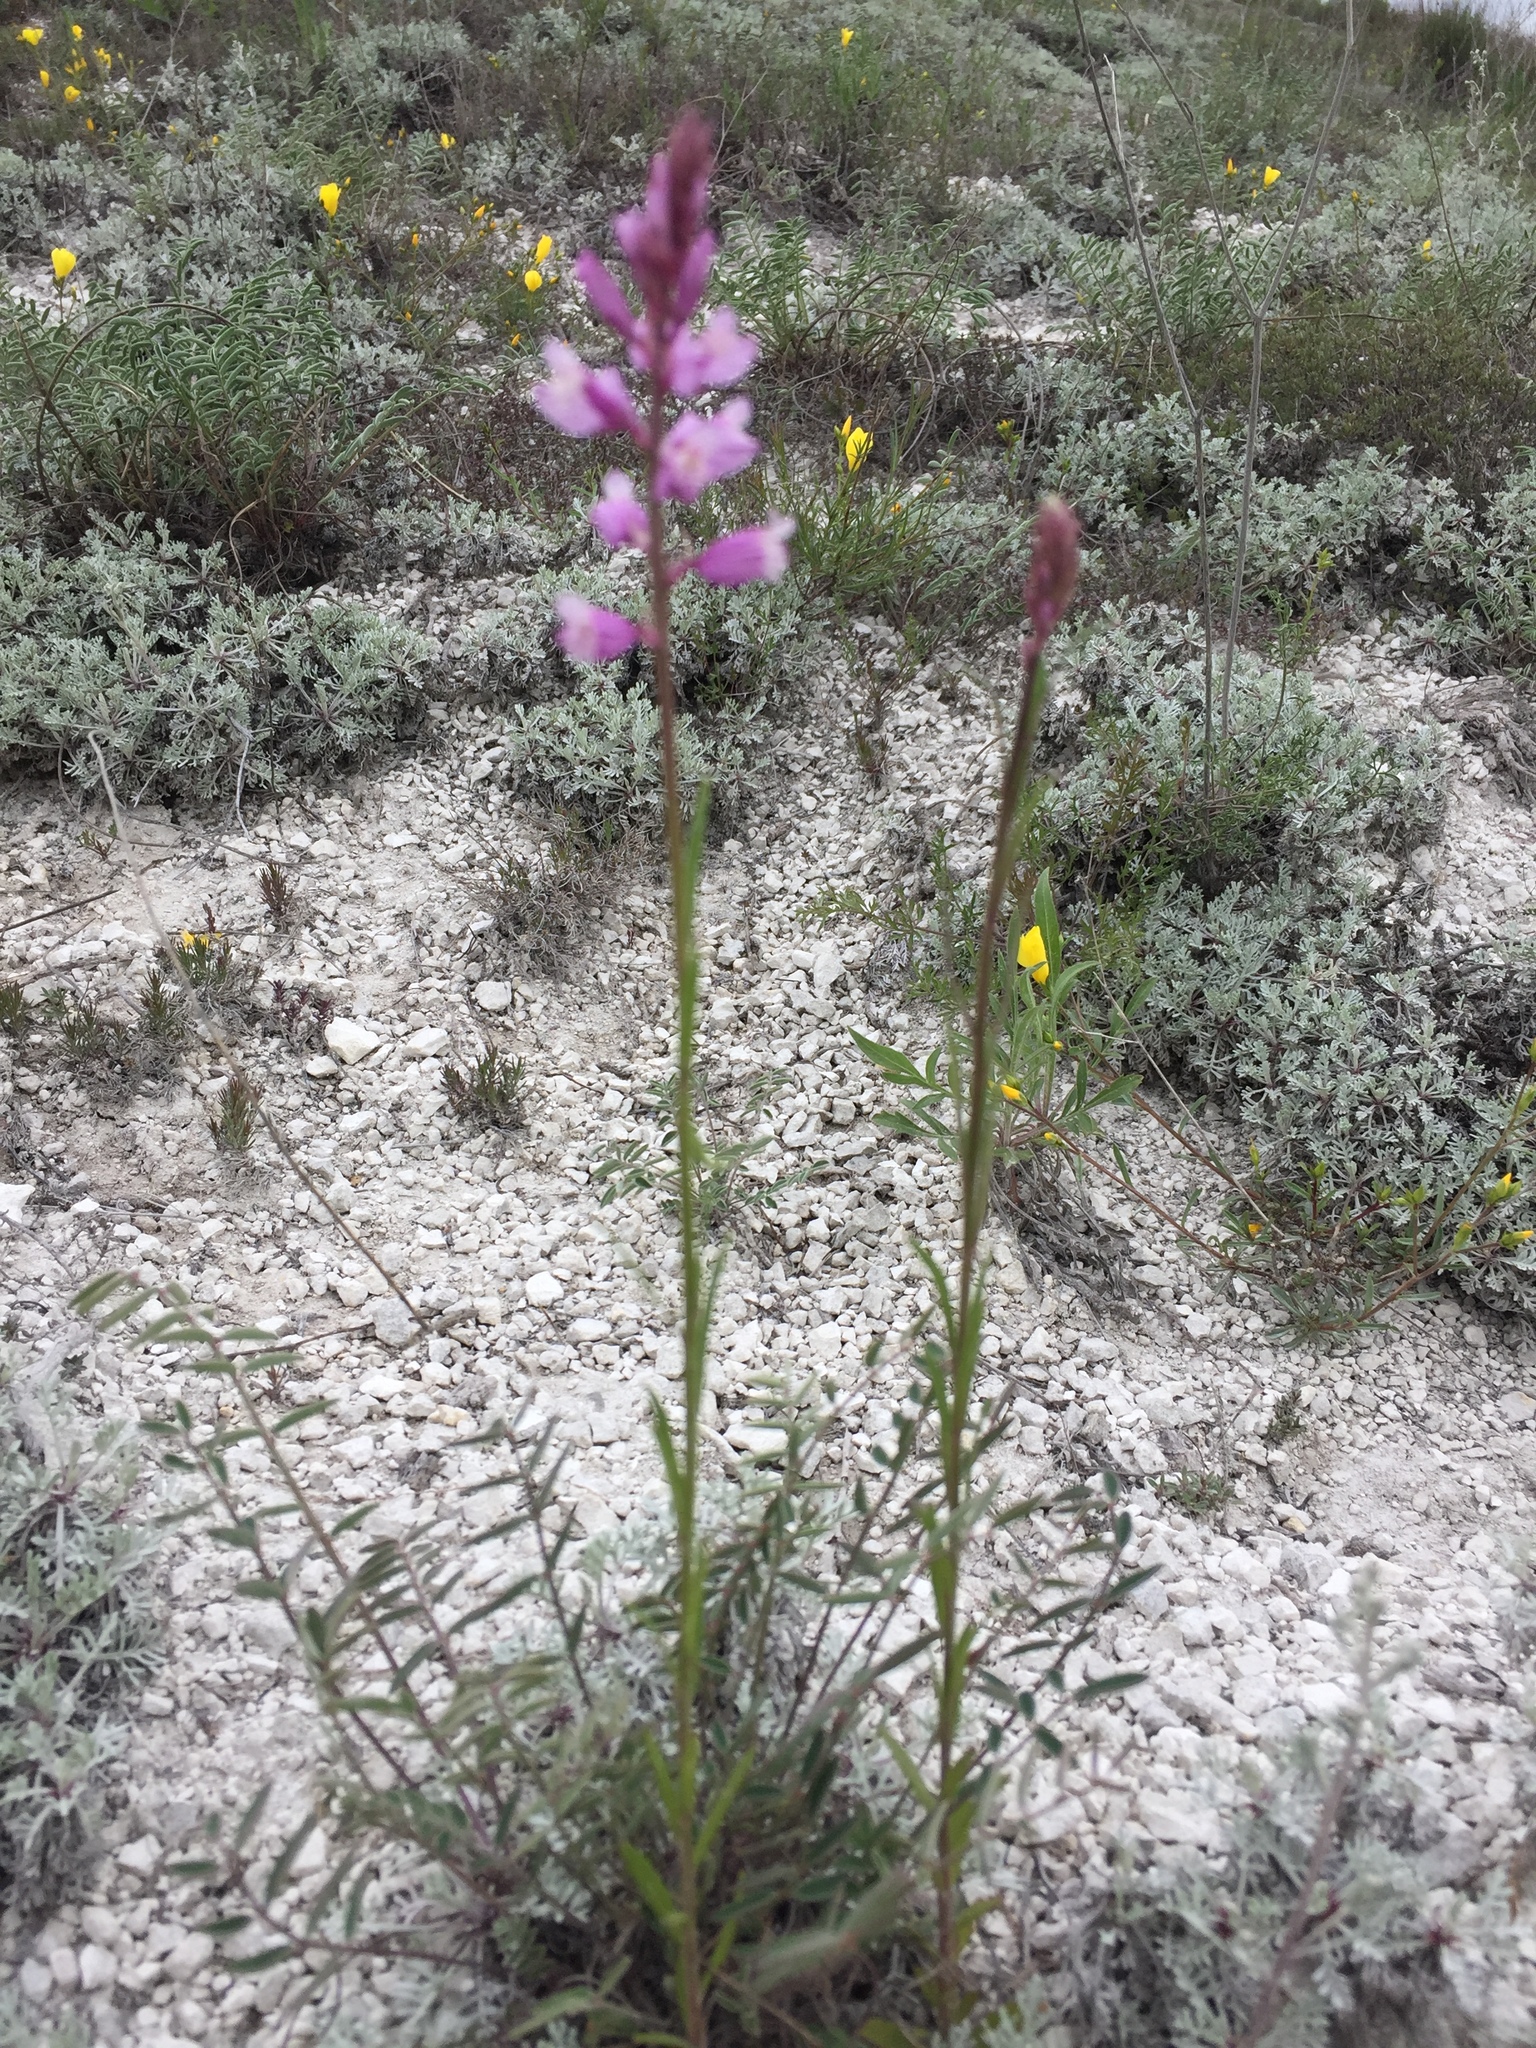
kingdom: Plantae
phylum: Tracheophyta
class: Magnoliopsida
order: Fabales
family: Polygalaceae
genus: Polygala
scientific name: Polygala nicaeensis
